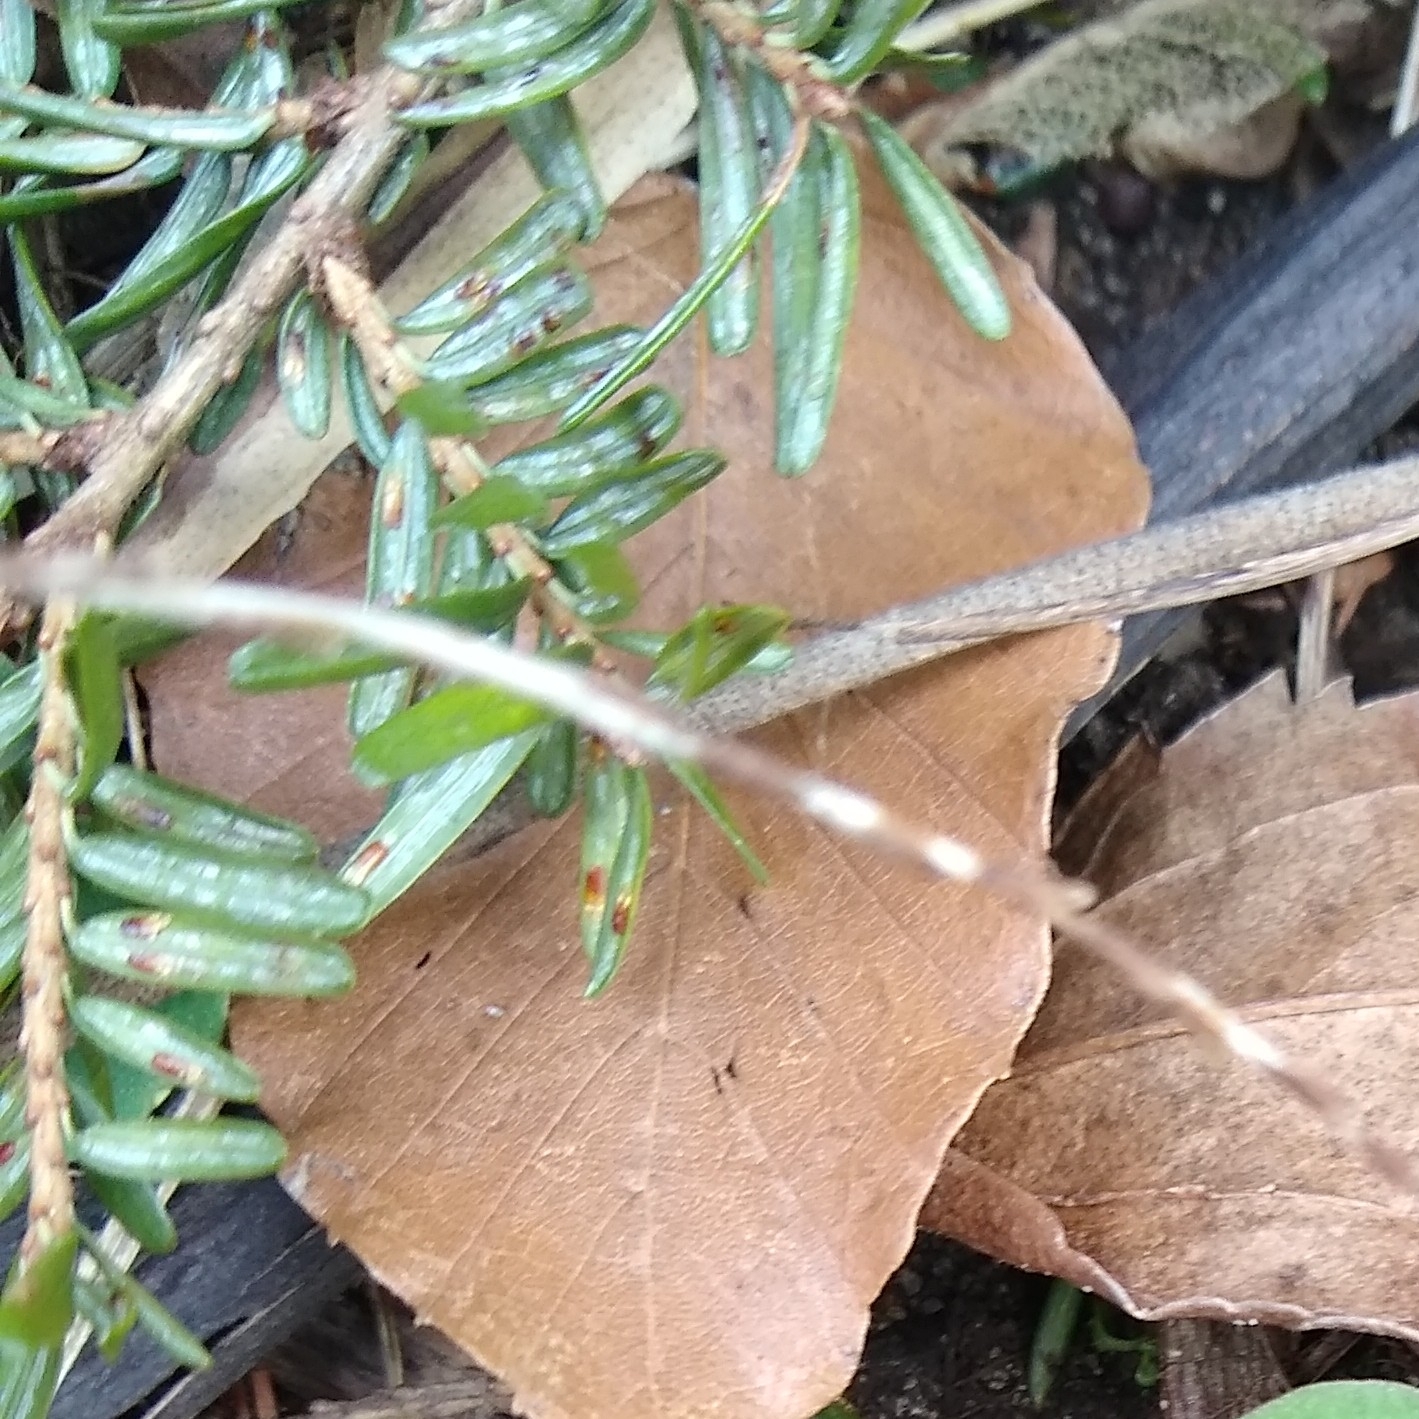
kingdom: Animalia
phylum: Arthropoda
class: Insecta
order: Hemiptera
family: Diaspididae
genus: Fiorinia
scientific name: Fiorinia externa
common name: Elongate hemlock scale
